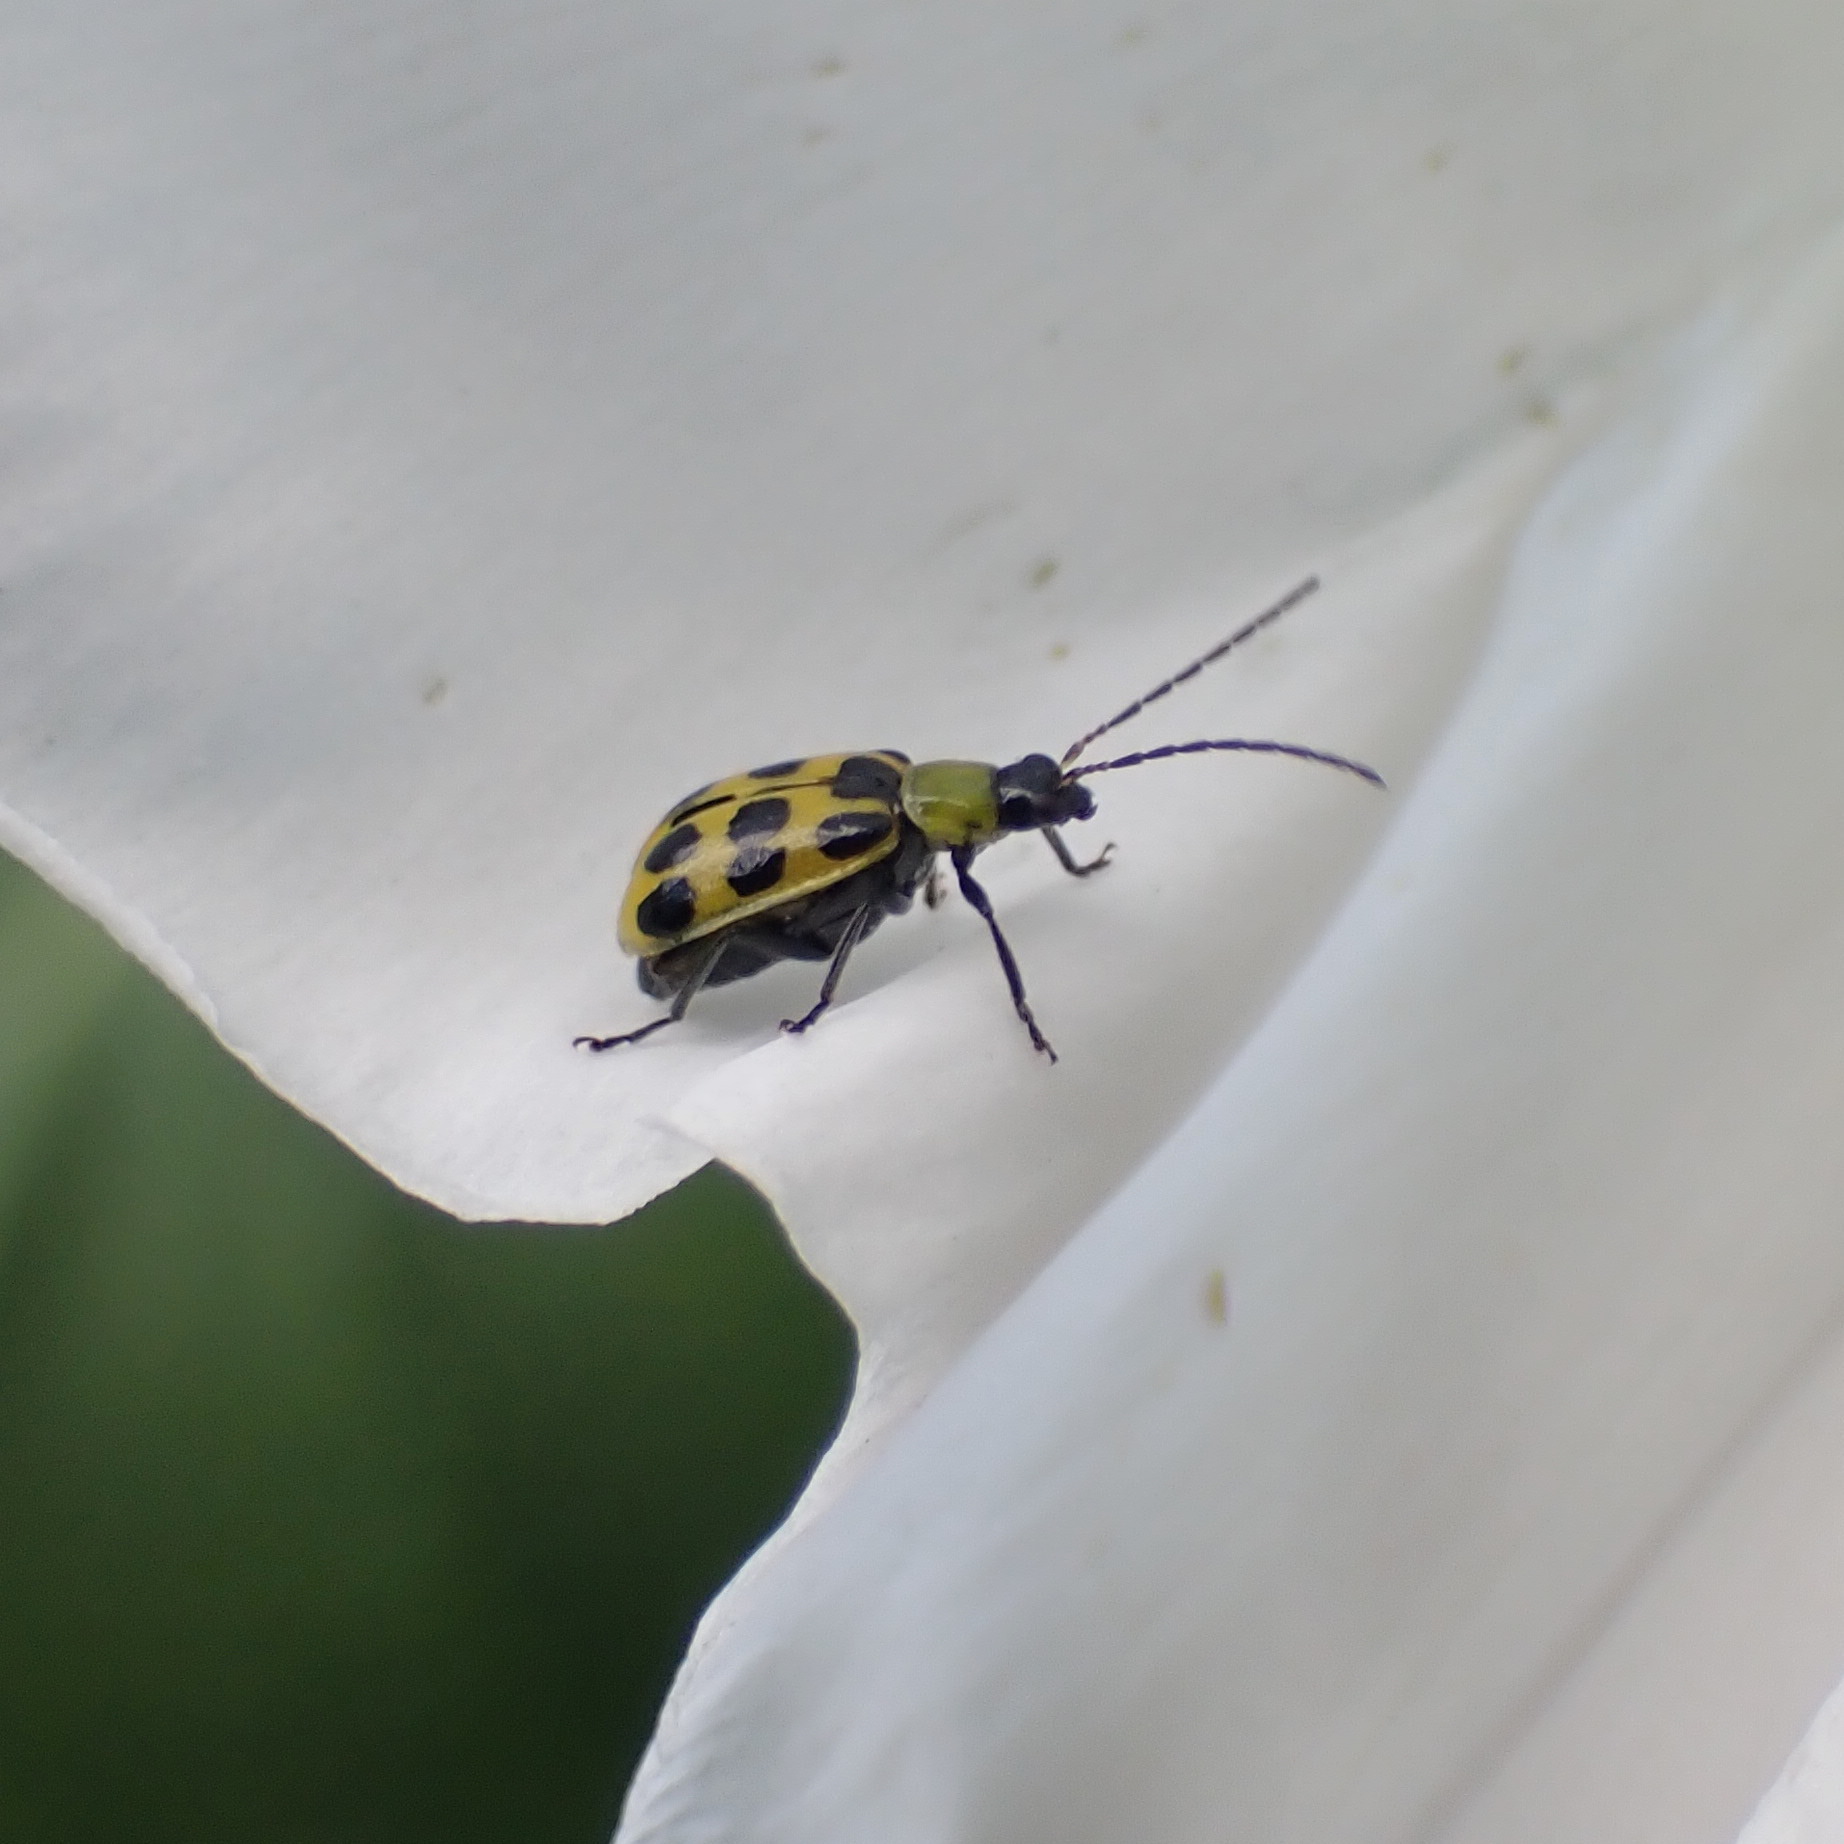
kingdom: Animalia
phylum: Arthropoda
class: Insecta
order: Coleoptera
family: Chrysomelidae
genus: Diabrotica
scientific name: Diabrotica undecimpunctata
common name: Spotted cucumber beetle
